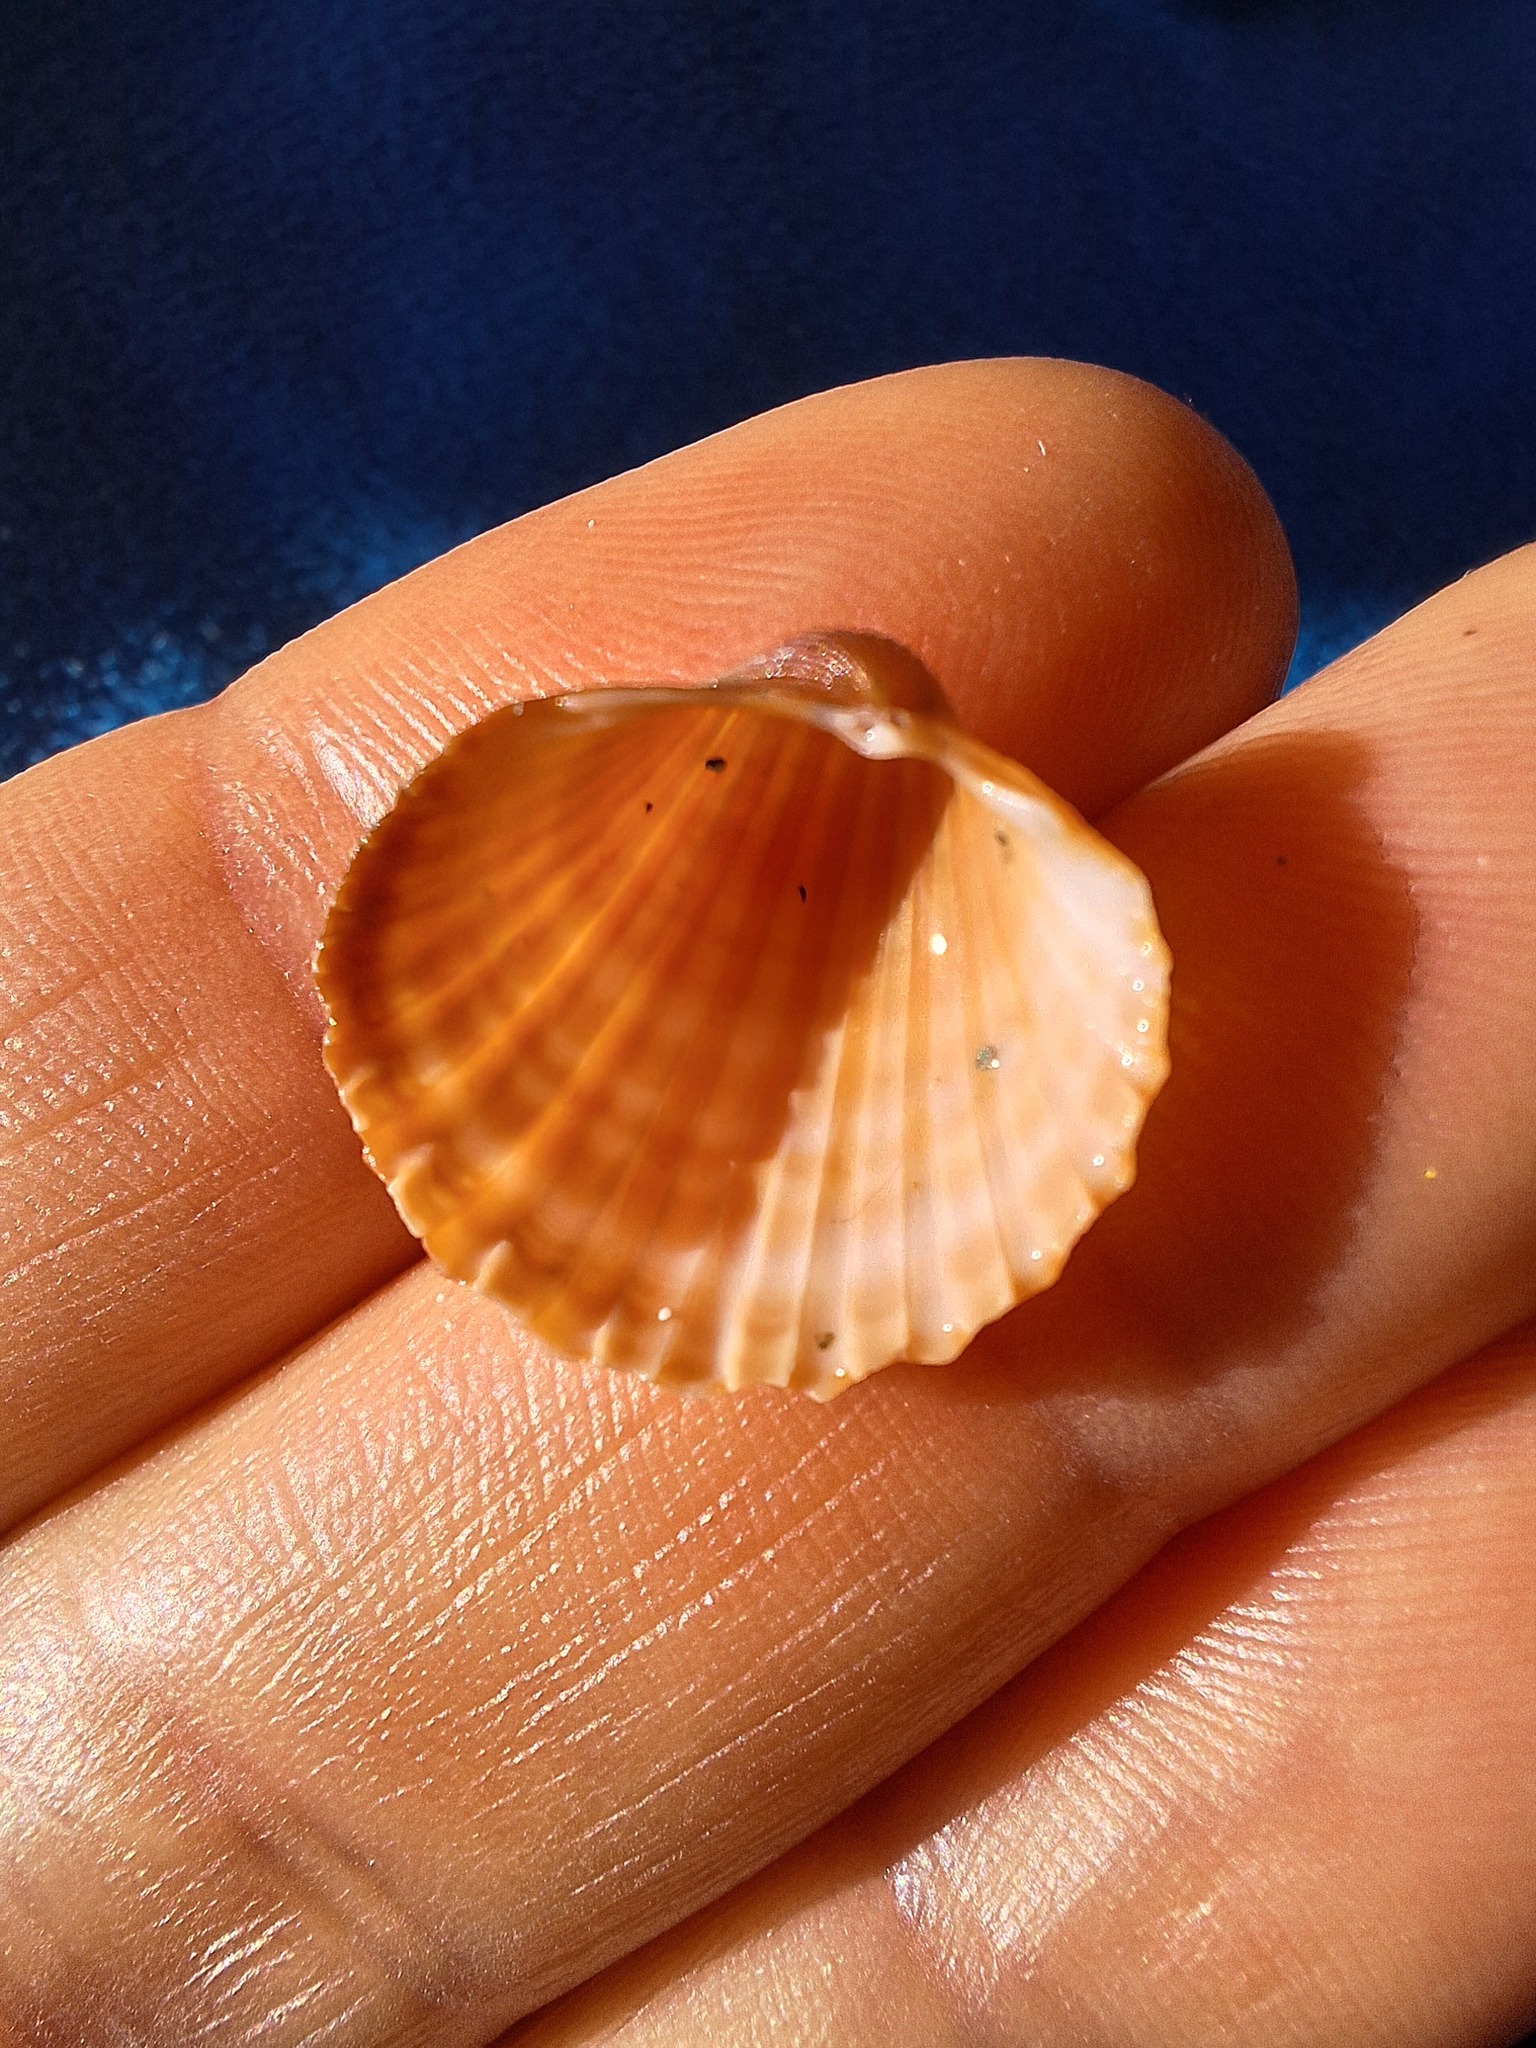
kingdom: Animalia
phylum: Mollusca
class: Bivalvia
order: Cardiida
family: Cardiidae
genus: Acanthocardia
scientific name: Acanthocardia paucicostata
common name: Poorly ribbed cockle
